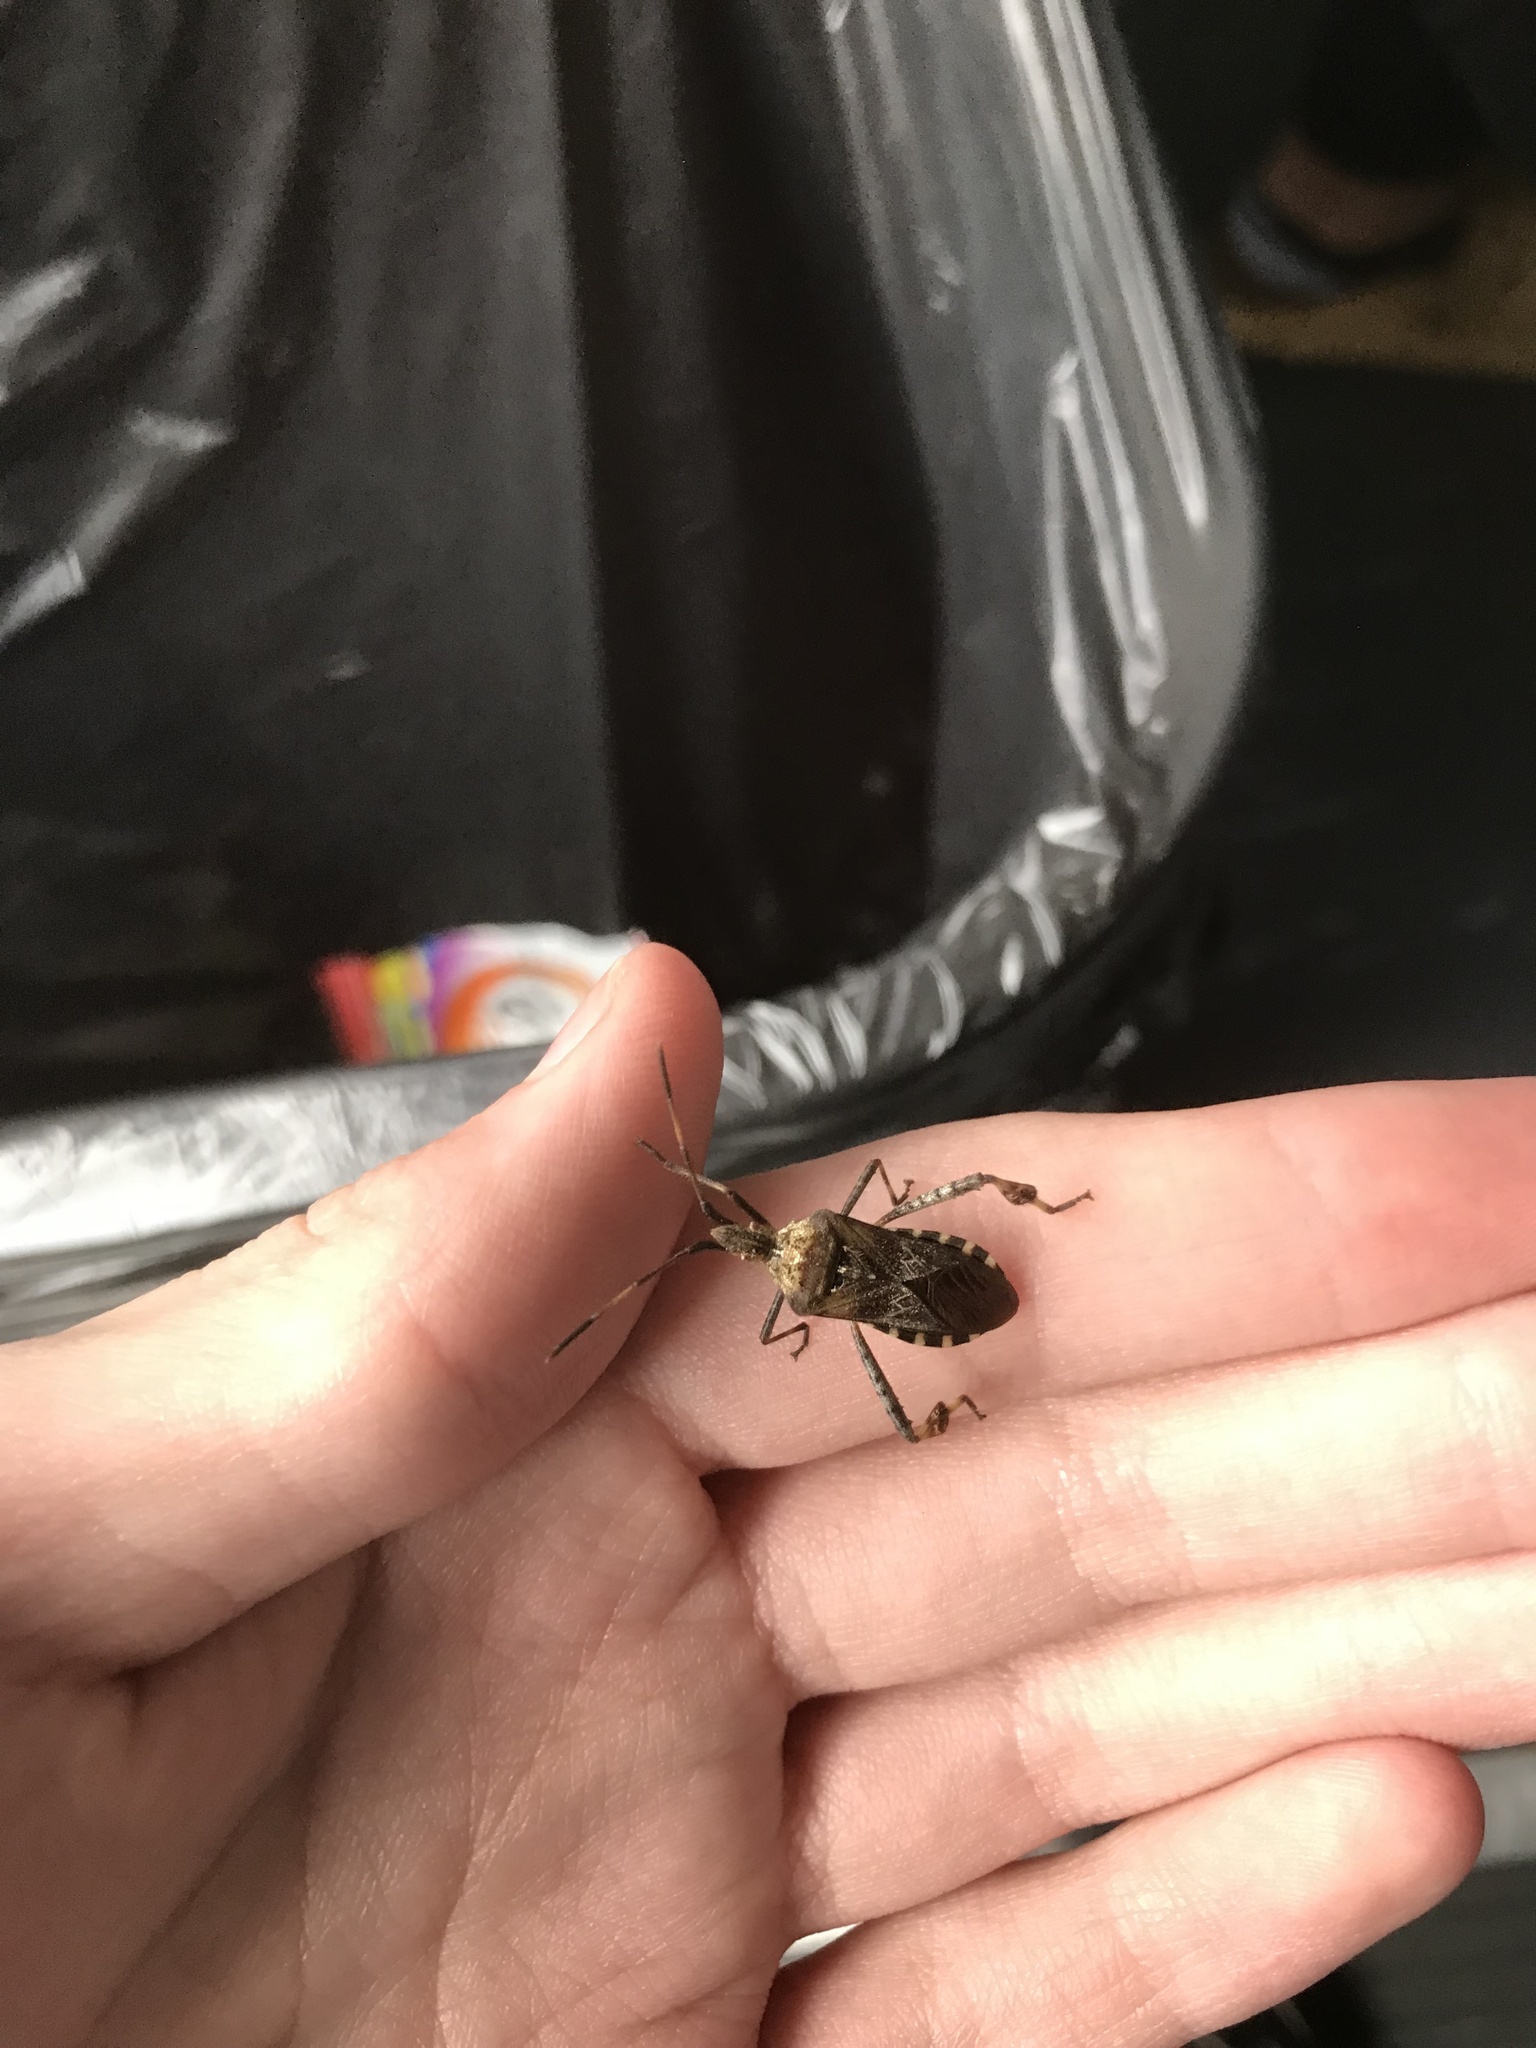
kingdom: Animalia
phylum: Arthropoda
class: Insecta
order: Hemiptera
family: Coreidae
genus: Leptoglossus
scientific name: Leptoglossus occidentalis
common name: Western conifer-seed bug
